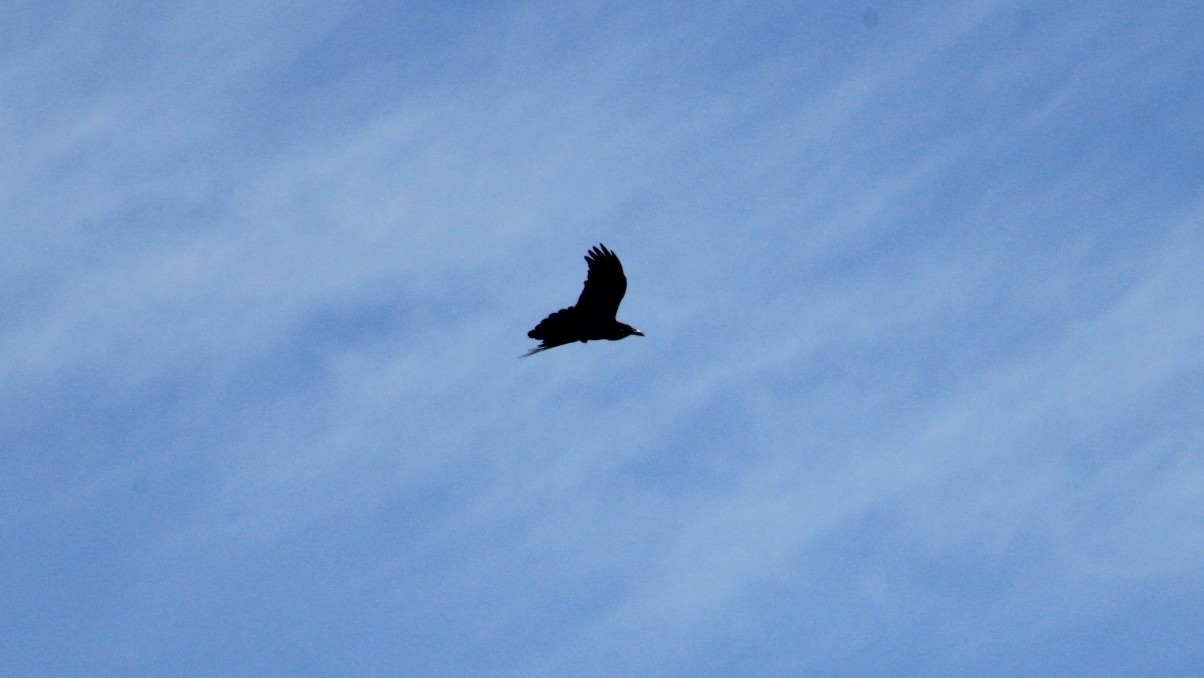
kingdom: Animalia
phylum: Chordata
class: Aves
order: Passeriformes
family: Corvidae
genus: Corvus
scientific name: Corvus corax
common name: Common raven
